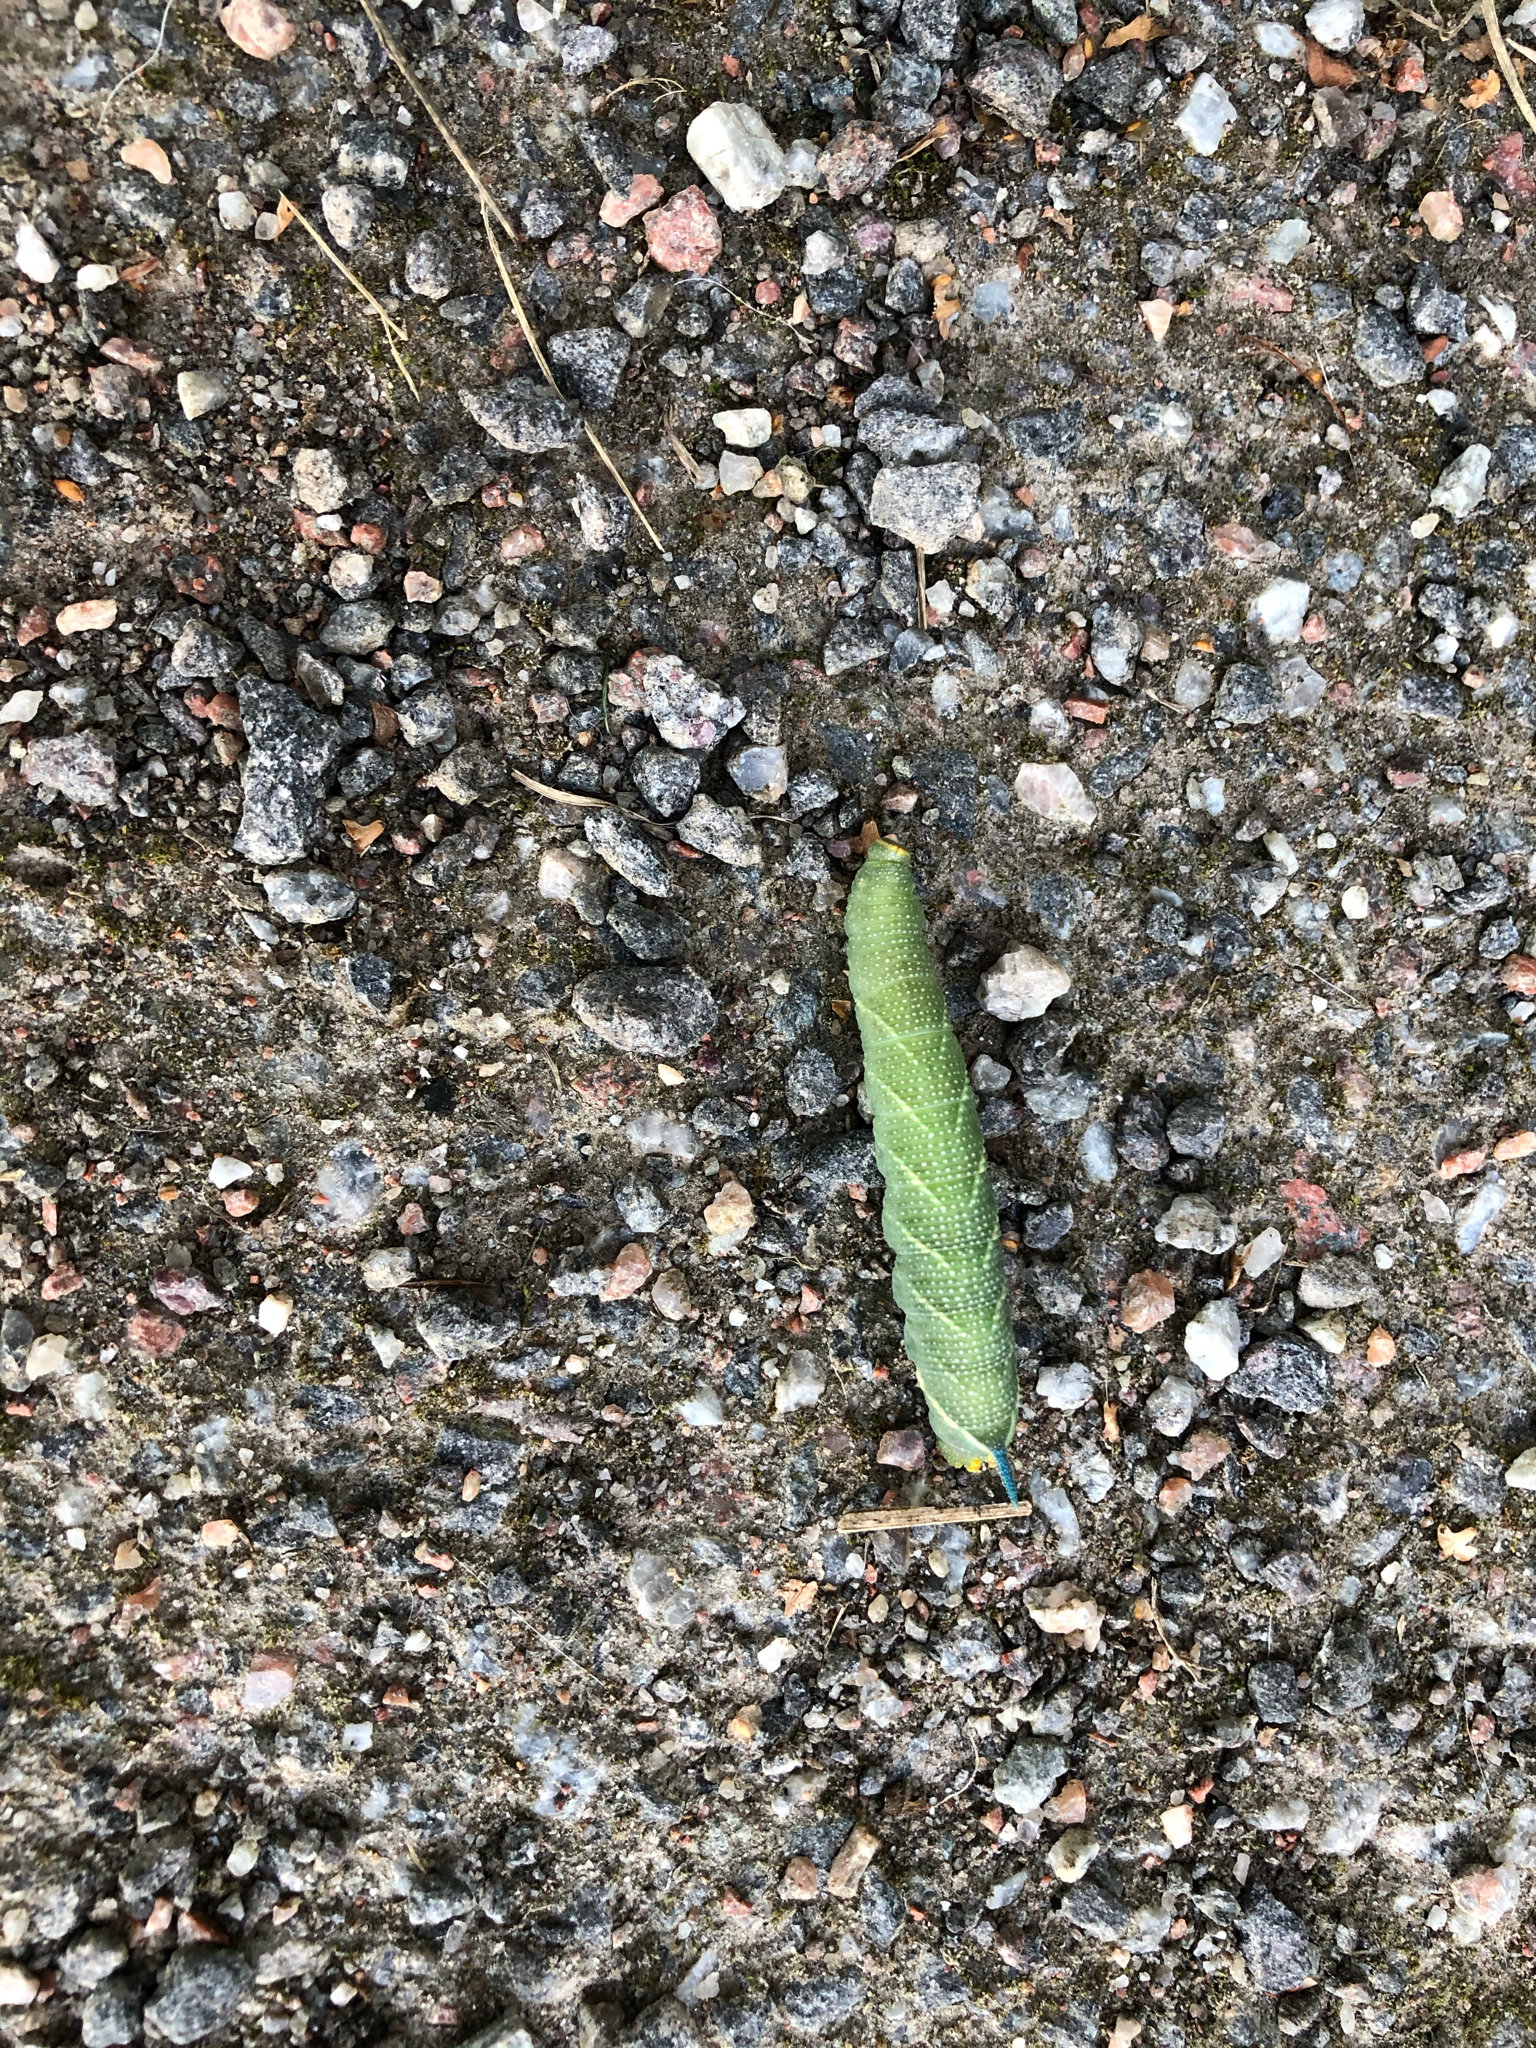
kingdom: Animalia
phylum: Arthropoda
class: Insecta
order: Lepidoptera
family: Sphingidae
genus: Mimas
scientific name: Mimas tiliae
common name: Lime hawk-moth
